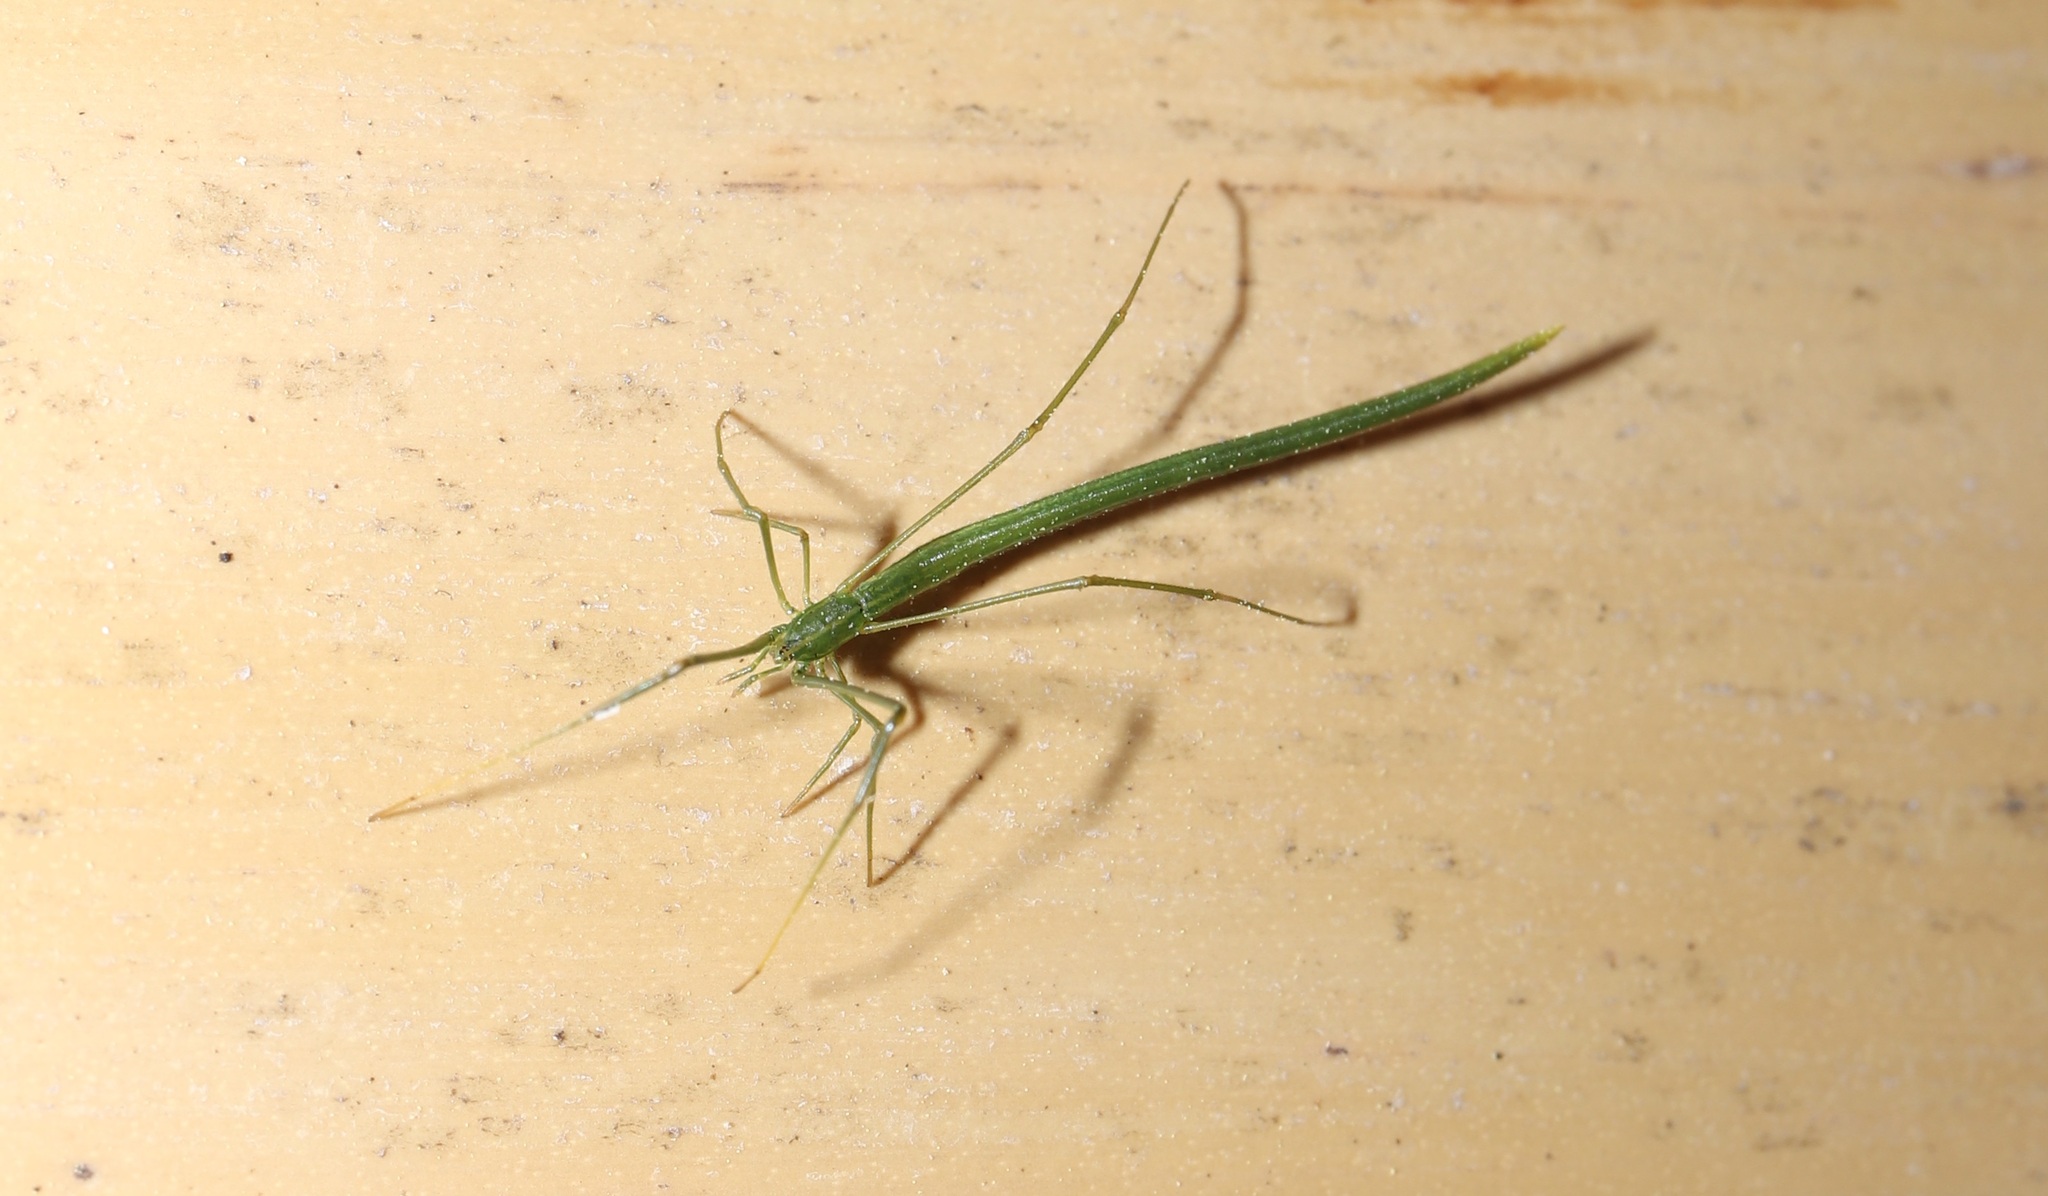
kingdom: Animalia
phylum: Arthropoda
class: Arachnida
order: Araneae
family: Theridiidae
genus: Ariamnes
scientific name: Ariamnes cylindrogaster
